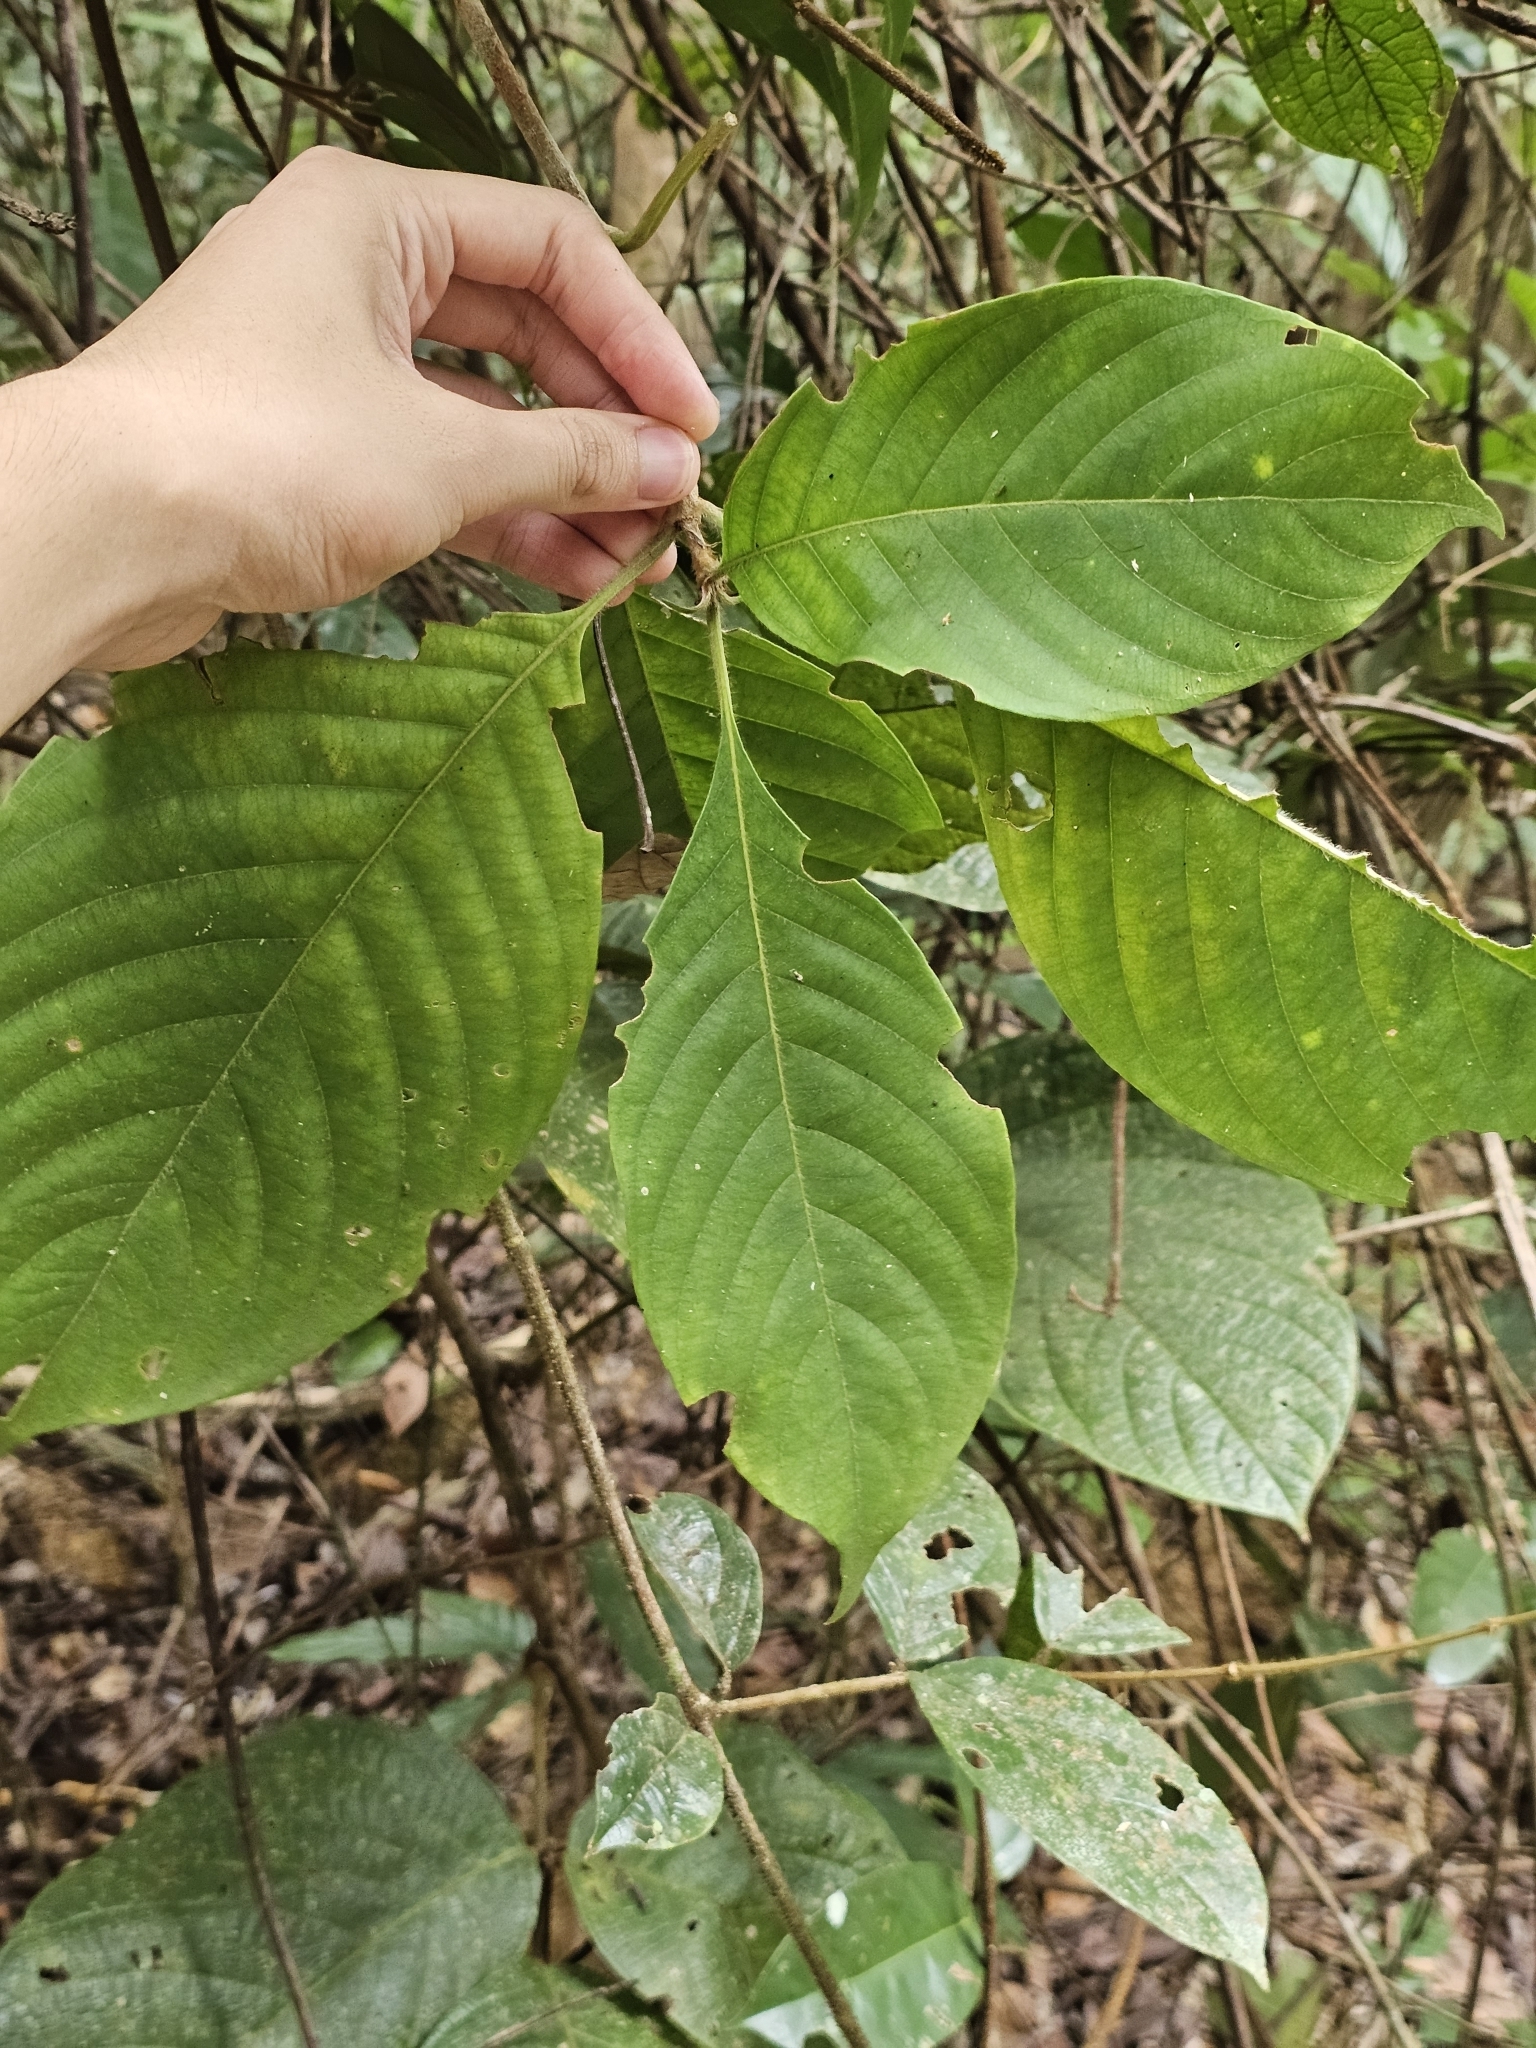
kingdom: Plantae
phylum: Tracheophyta
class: Magnoliopsida
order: Gentianales
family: Rubiaceae
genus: Mussaenda
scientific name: Mussaenda maingayi
